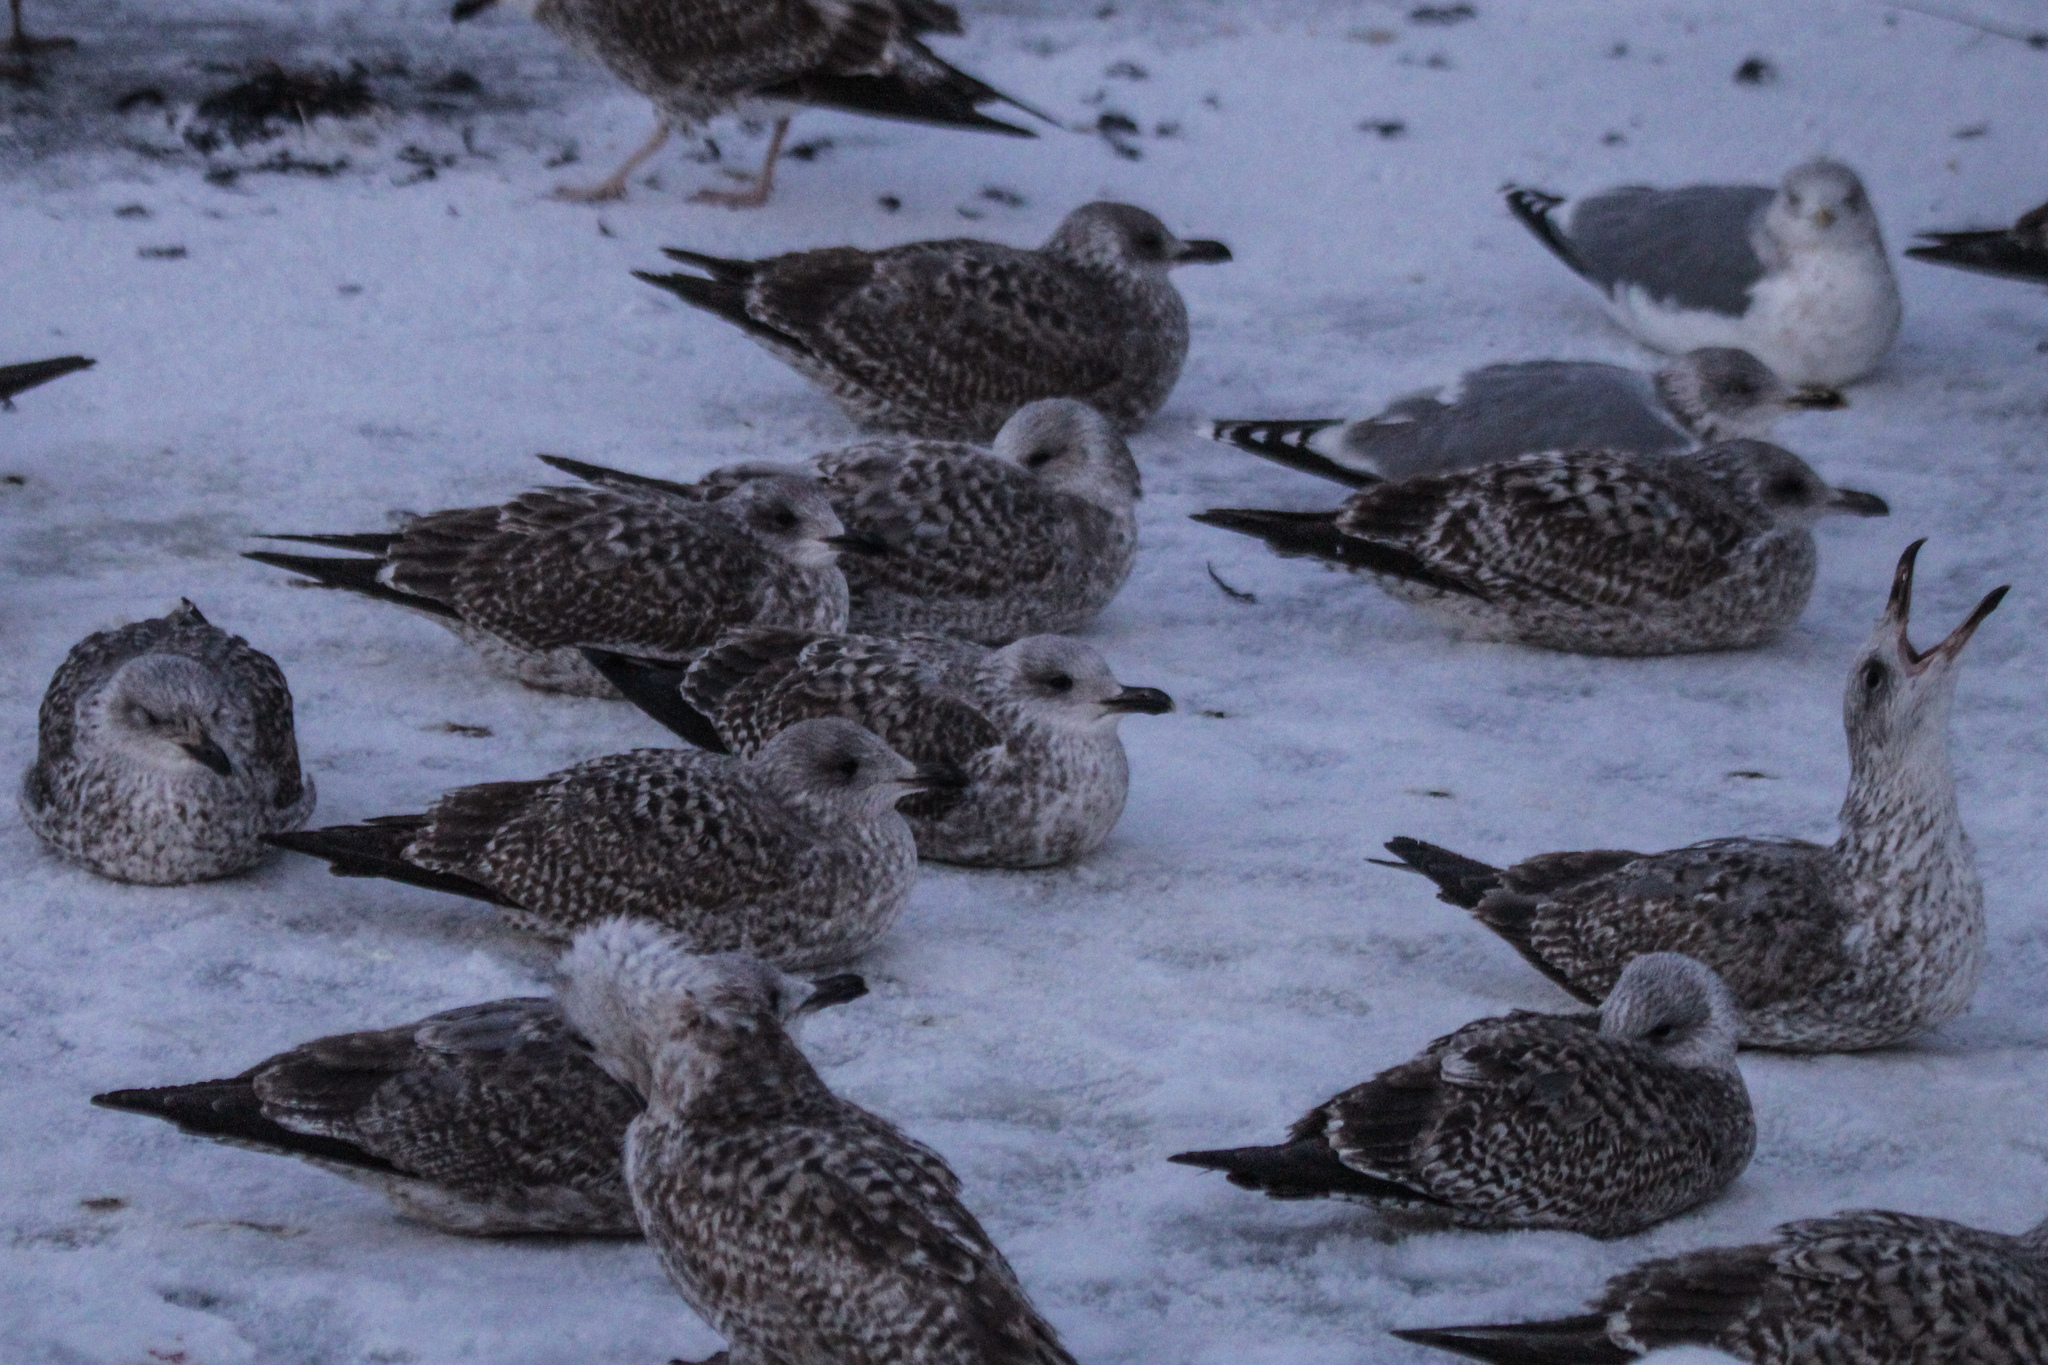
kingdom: Animalia
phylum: Chordata
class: Aves
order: Charadriiformes
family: Laridae
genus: Larus
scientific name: Larus argentatus
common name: Herring gull
